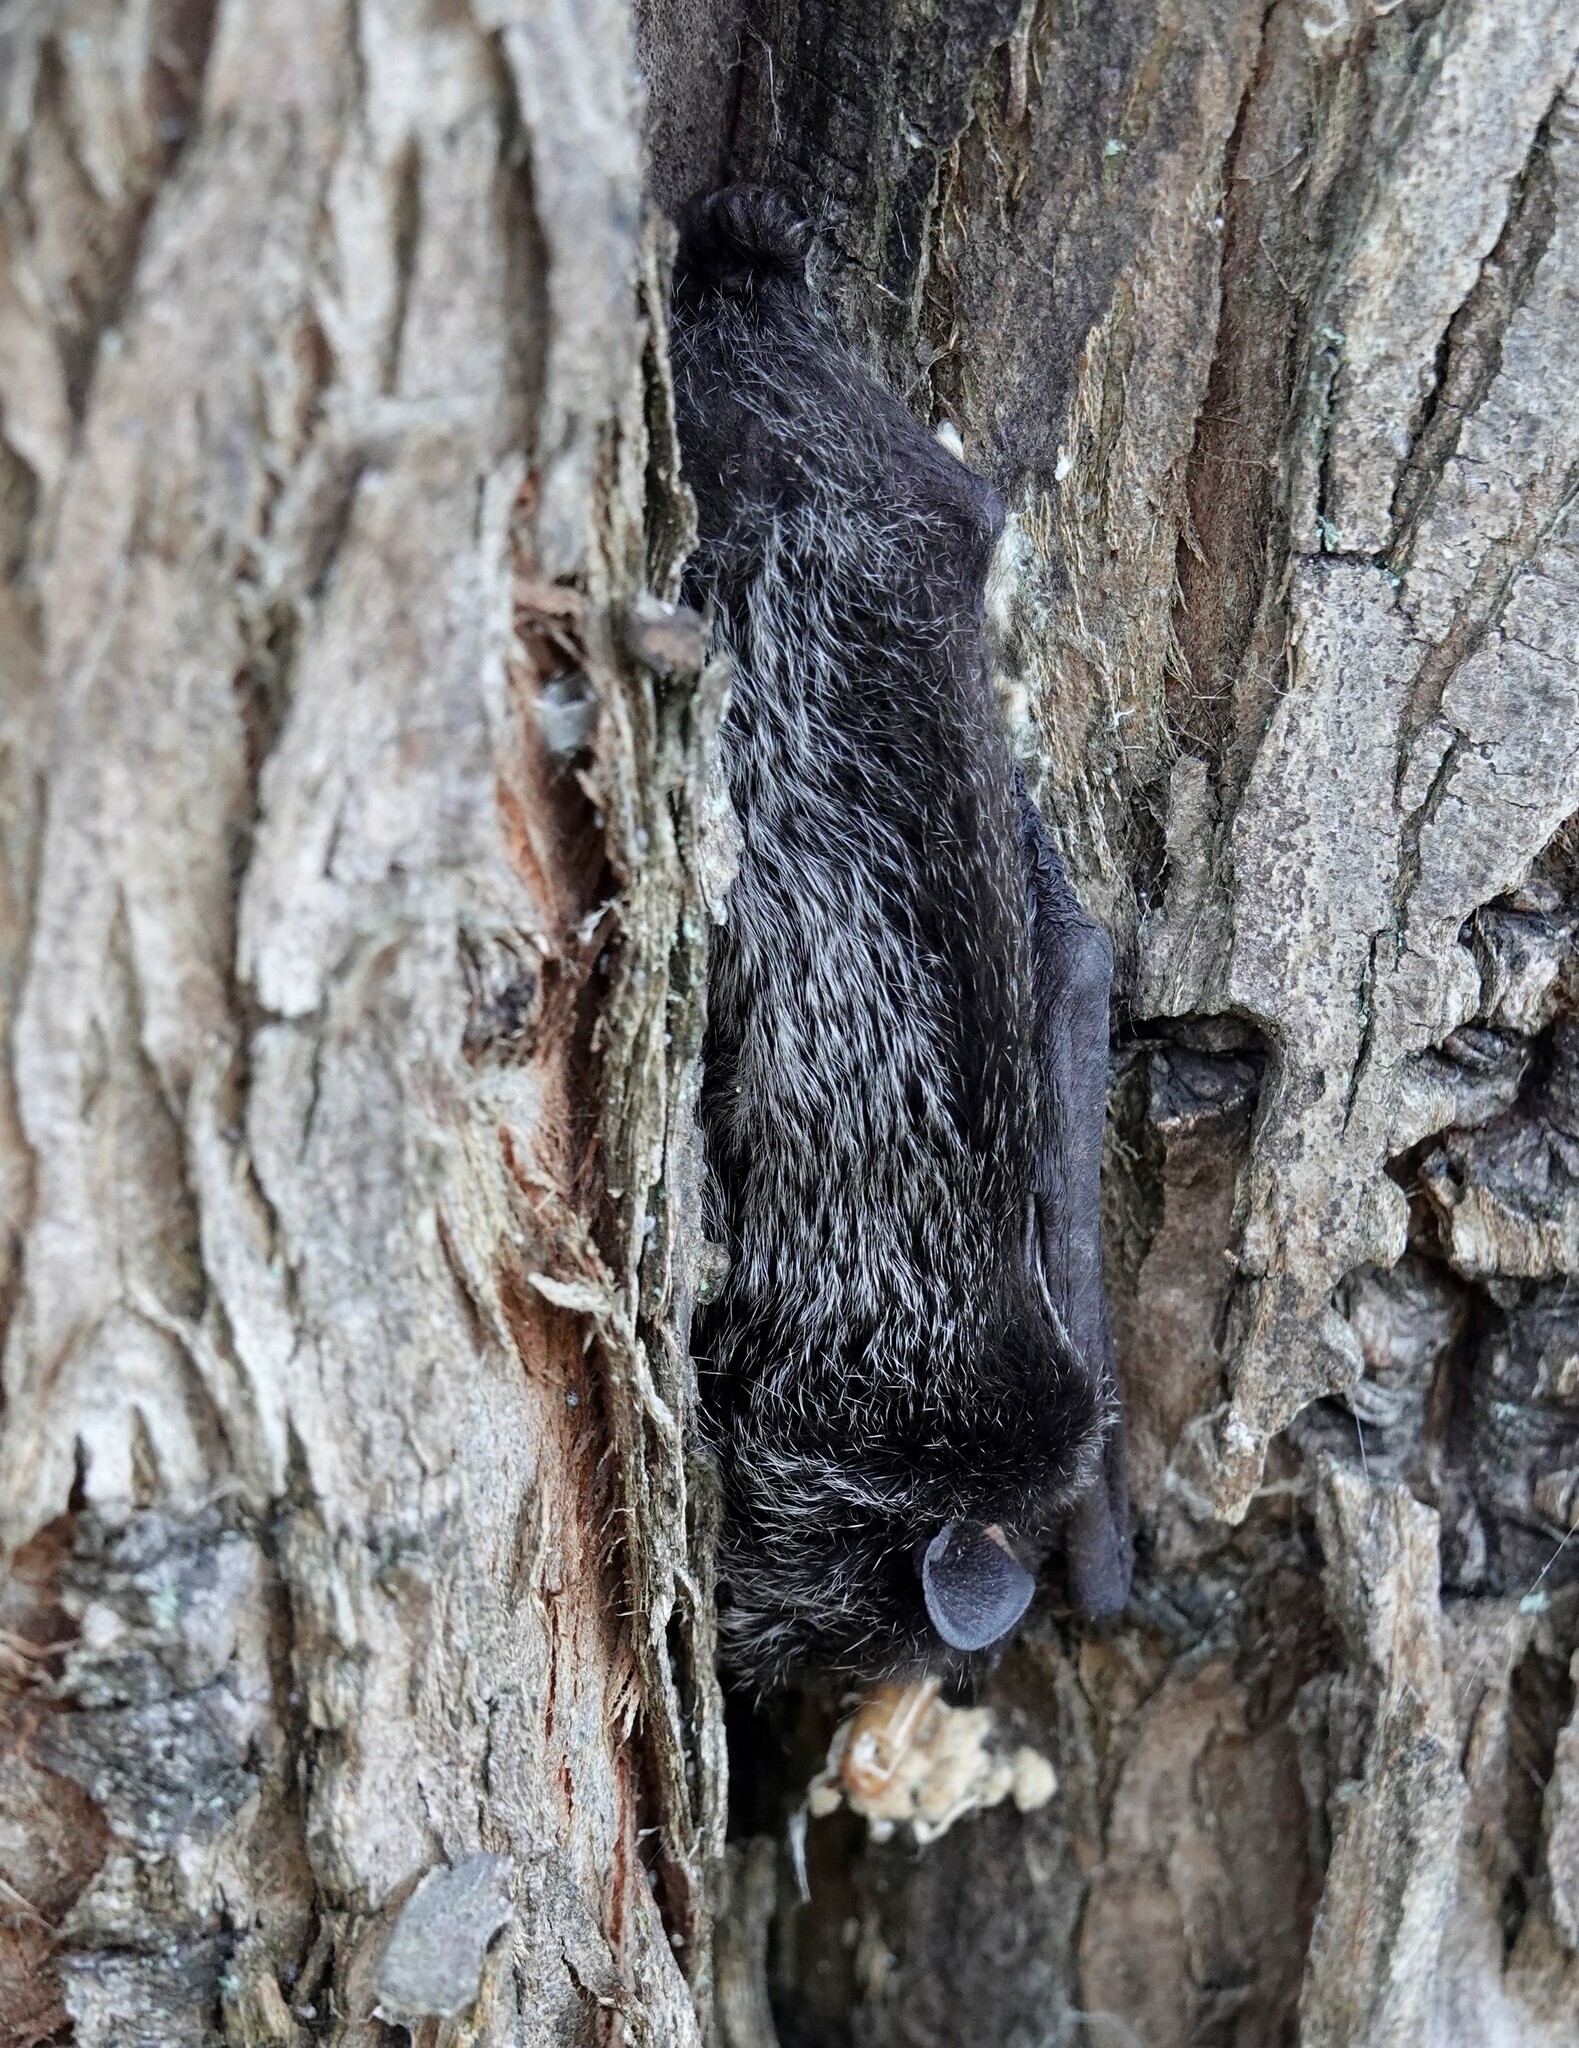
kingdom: Animalia
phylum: Chordata
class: Mammalia
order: Chiroptera
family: Vespertilionidae
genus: Lasionycteris
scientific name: Lasionycteris noctivagans
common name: Silver-haired bat
